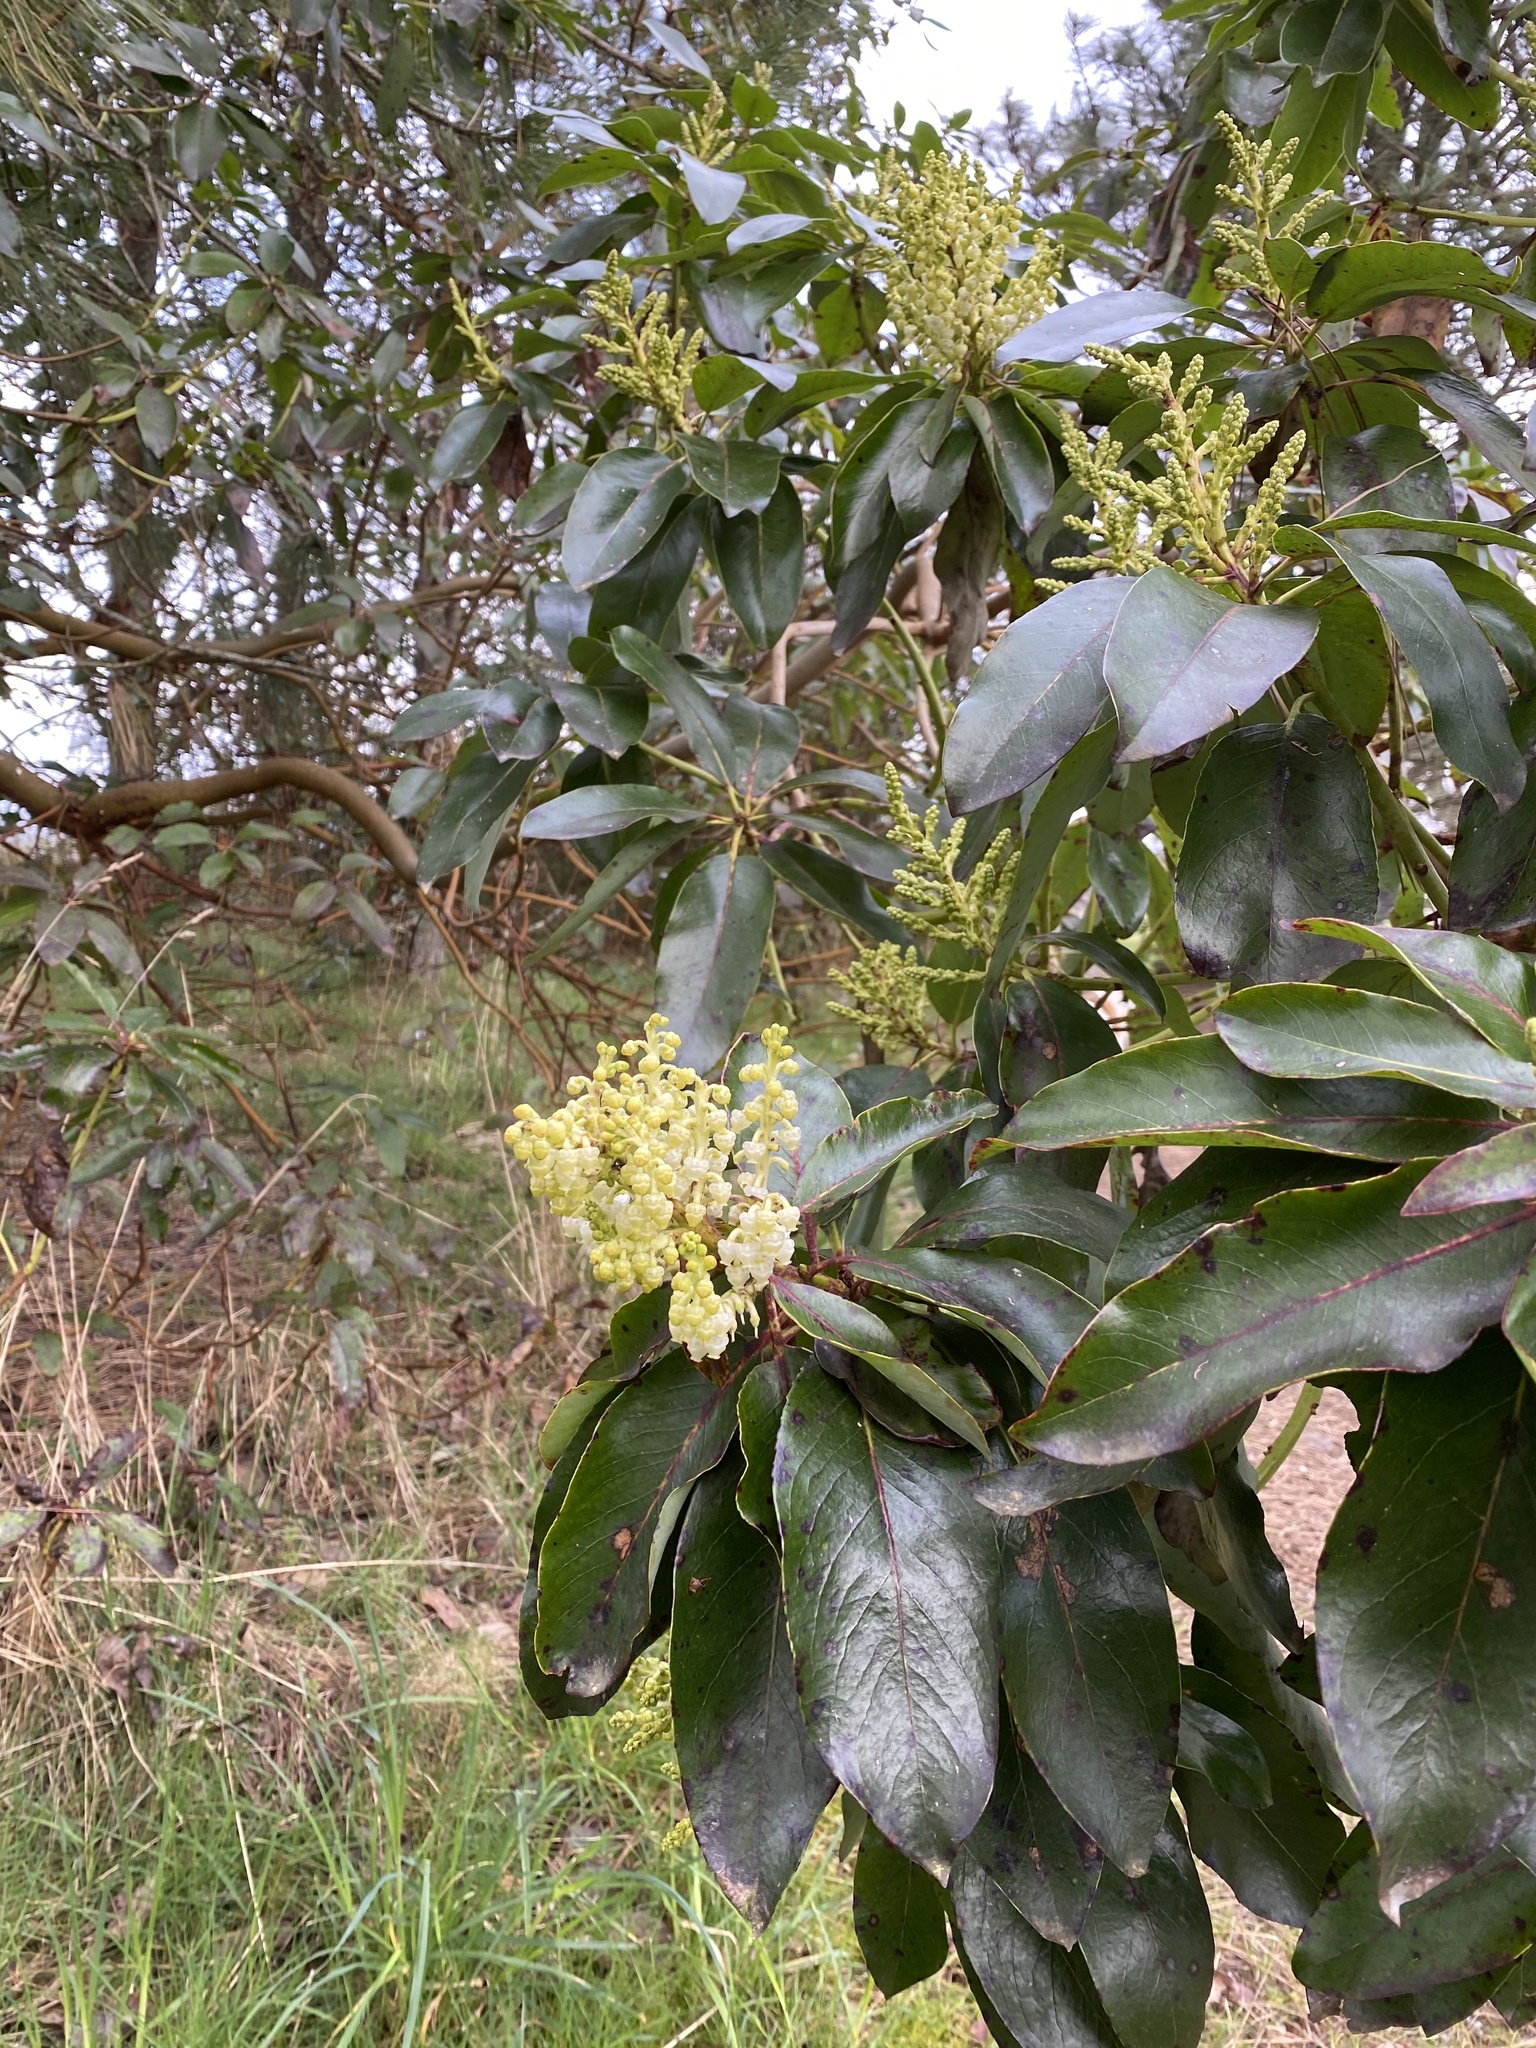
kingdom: Plantae
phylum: Tracheophyta
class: Magnoliopsida
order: Ericales
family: Ericaceae
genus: Arbutus
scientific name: Arbutus menziesii
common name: Pacific madrone
